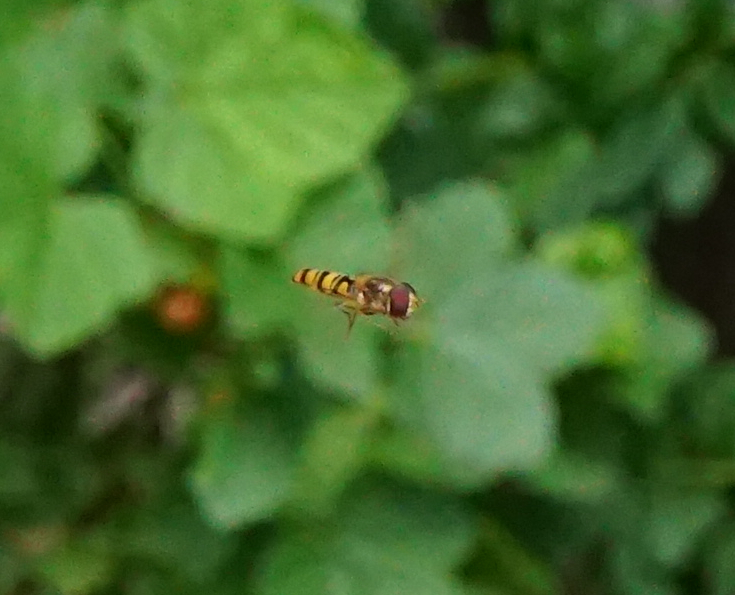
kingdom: Animalia
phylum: Arthropoda
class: Insecta
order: Diptera
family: Syrphidae
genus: Episyrphus
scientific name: Episyrphus balteatus
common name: Marmalade hoverfly
